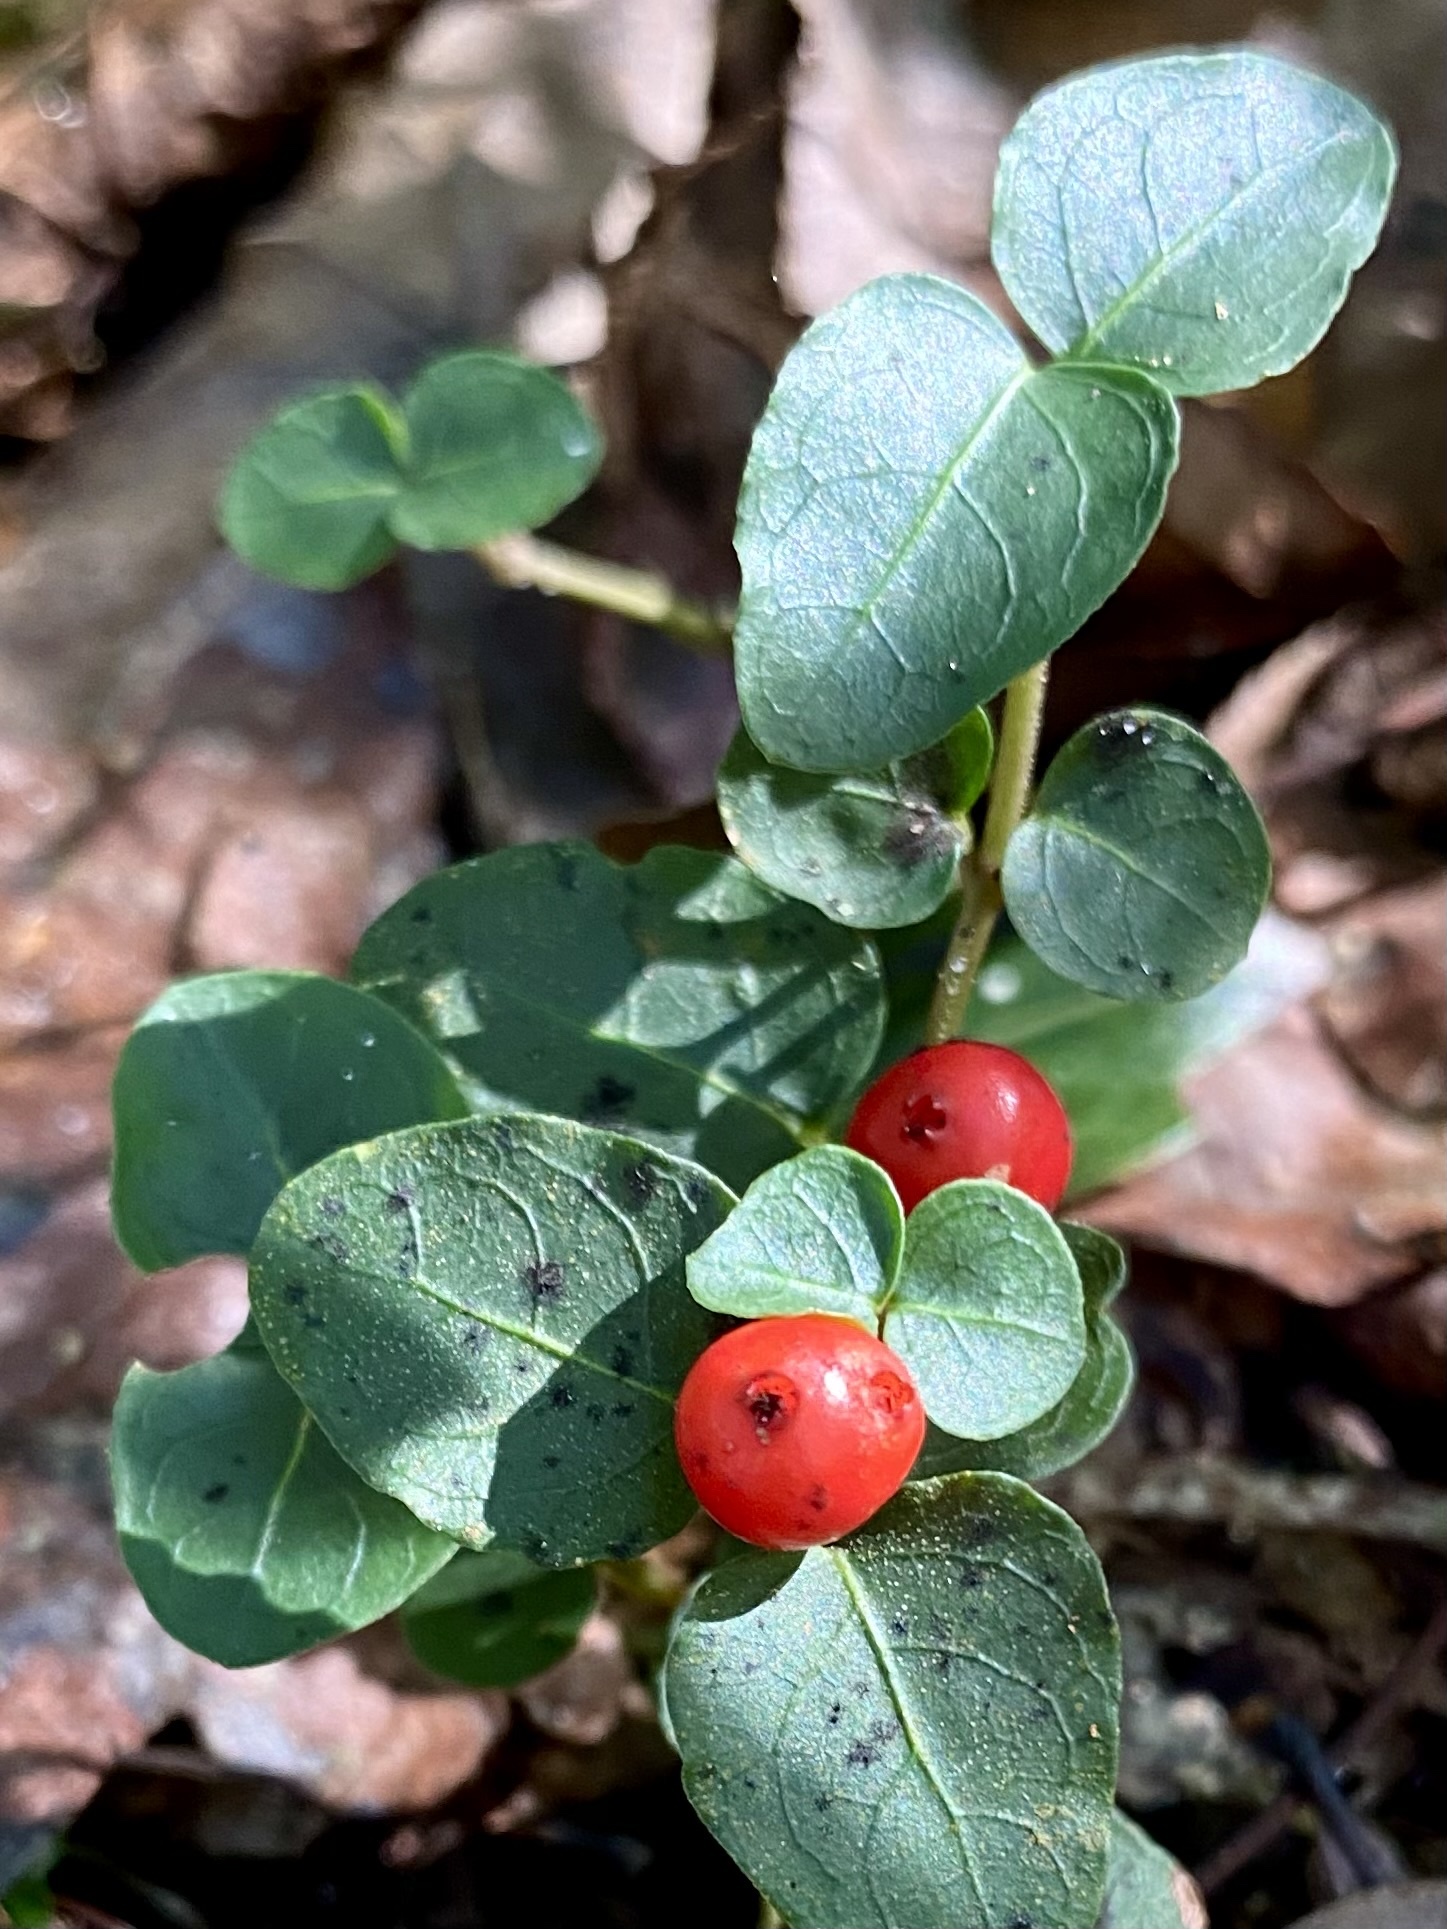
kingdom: Plantae
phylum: Tracheophyta
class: Magnoliopsida
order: Gentianales
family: Rubiaceae
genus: Mitchella
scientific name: Mitchella repens
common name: Partridge-berry
